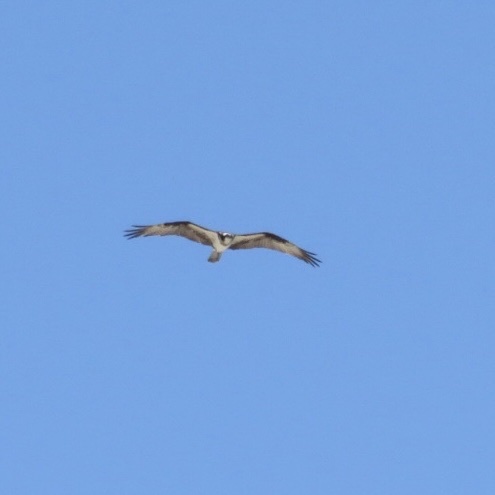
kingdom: Animalia
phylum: Chordata
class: Aves
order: Accipitriformes
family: Pandionidae
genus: Pandion
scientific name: Pandion haliaetus
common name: Osprey
